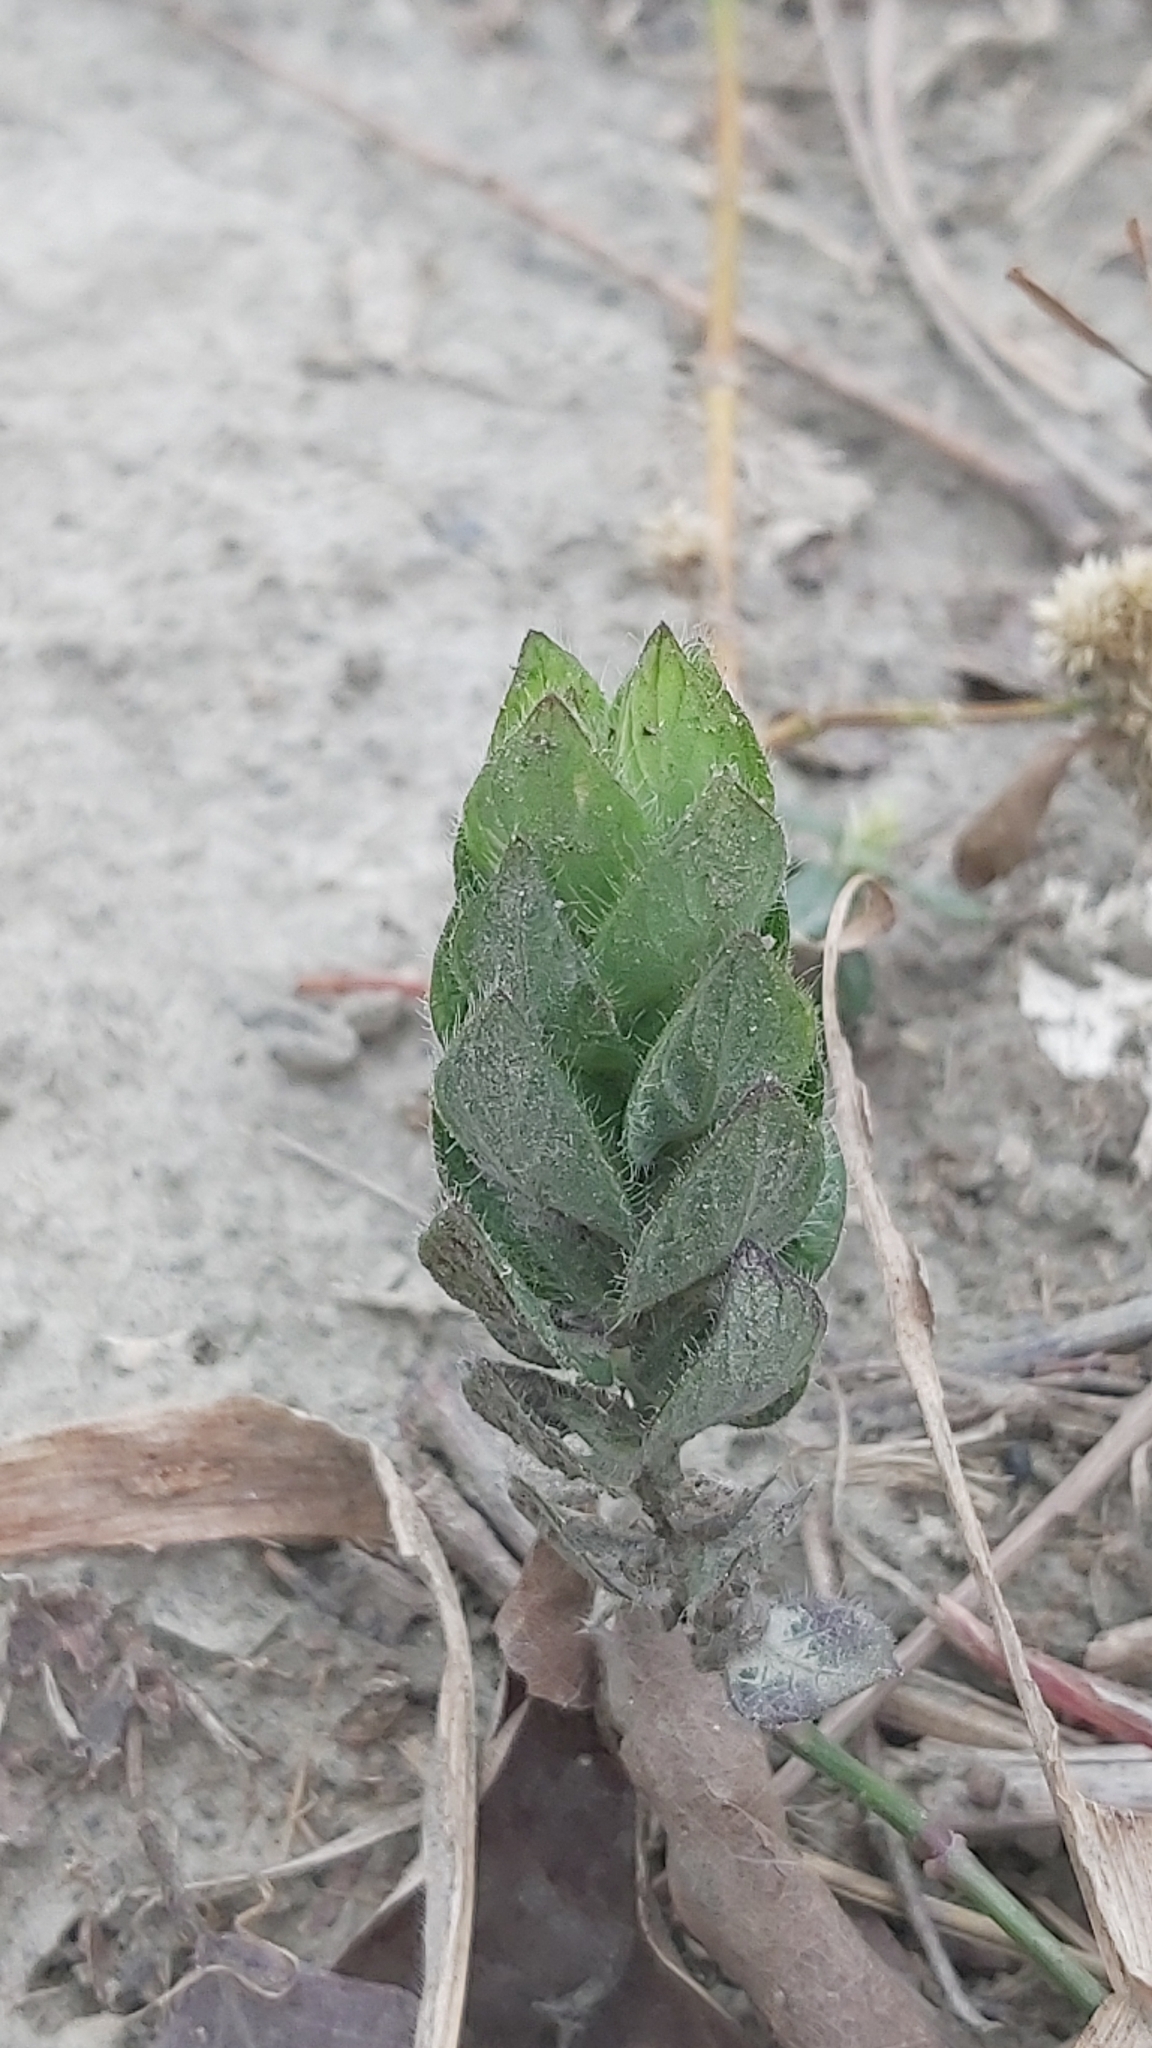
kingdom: Plantae
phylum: Tracheophyta
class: Magnoliopsida
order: Lamiales
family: Acanthaceae
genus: Ruellia
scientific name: Ruellia blechum
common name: Browne's blechum
